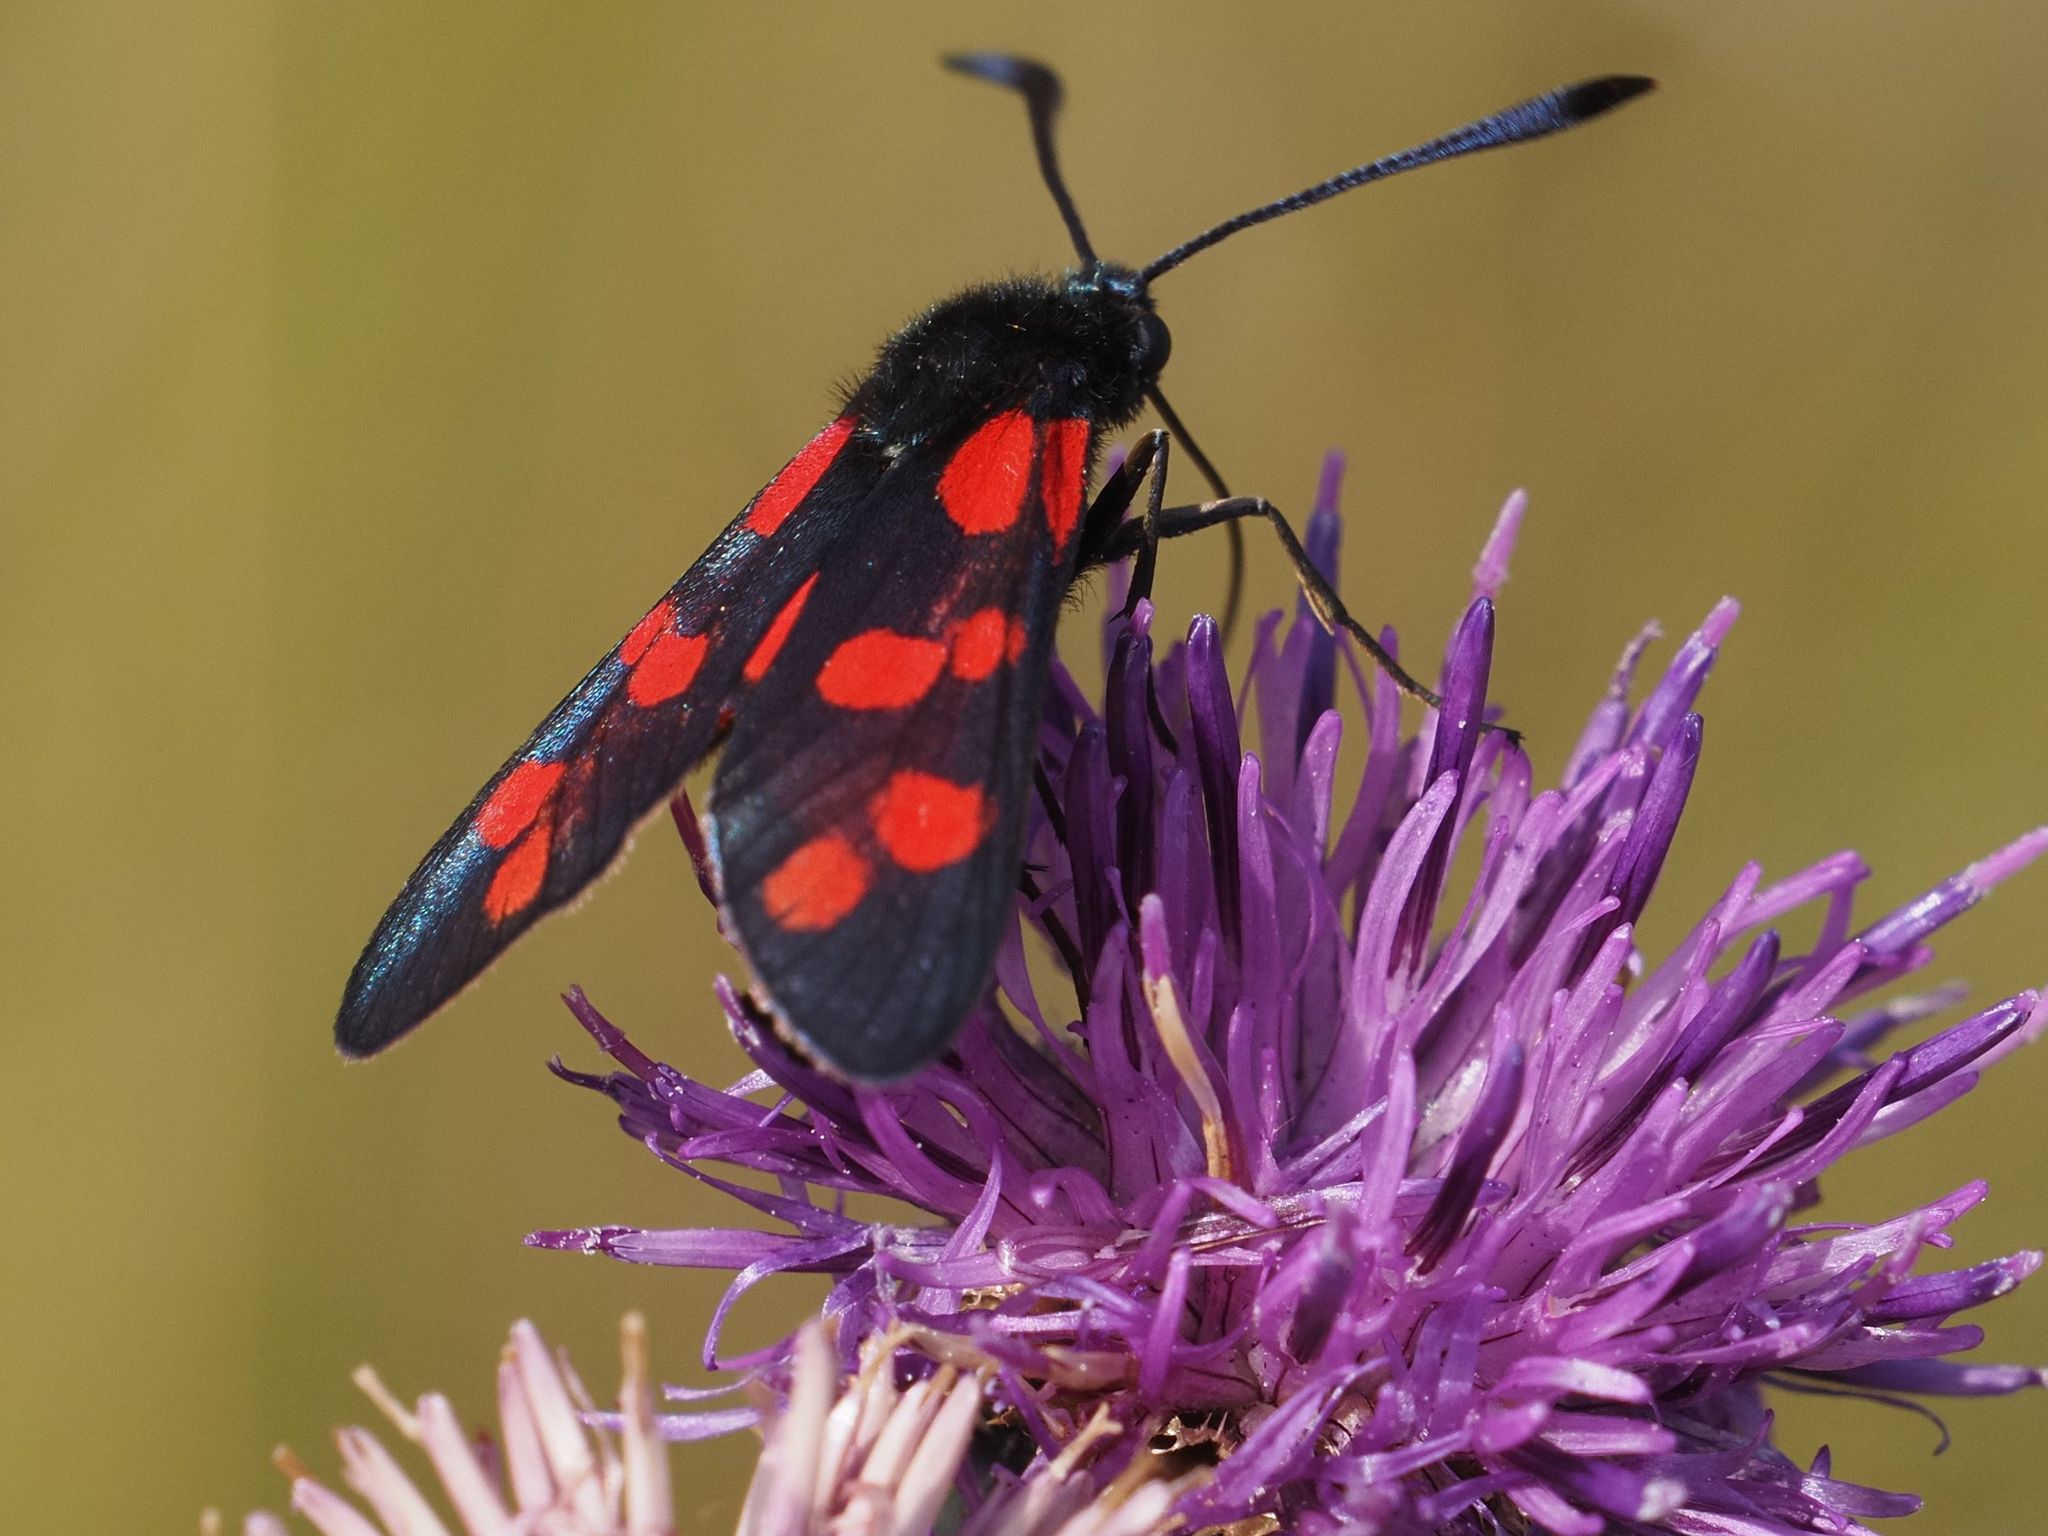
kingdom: Animalia
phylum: Arthropoda
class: Insecta
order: Lepidoptera
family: Zygaenidae
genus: Zygaena
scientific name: Zygaena filipendulae
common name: Six-spot burnet
